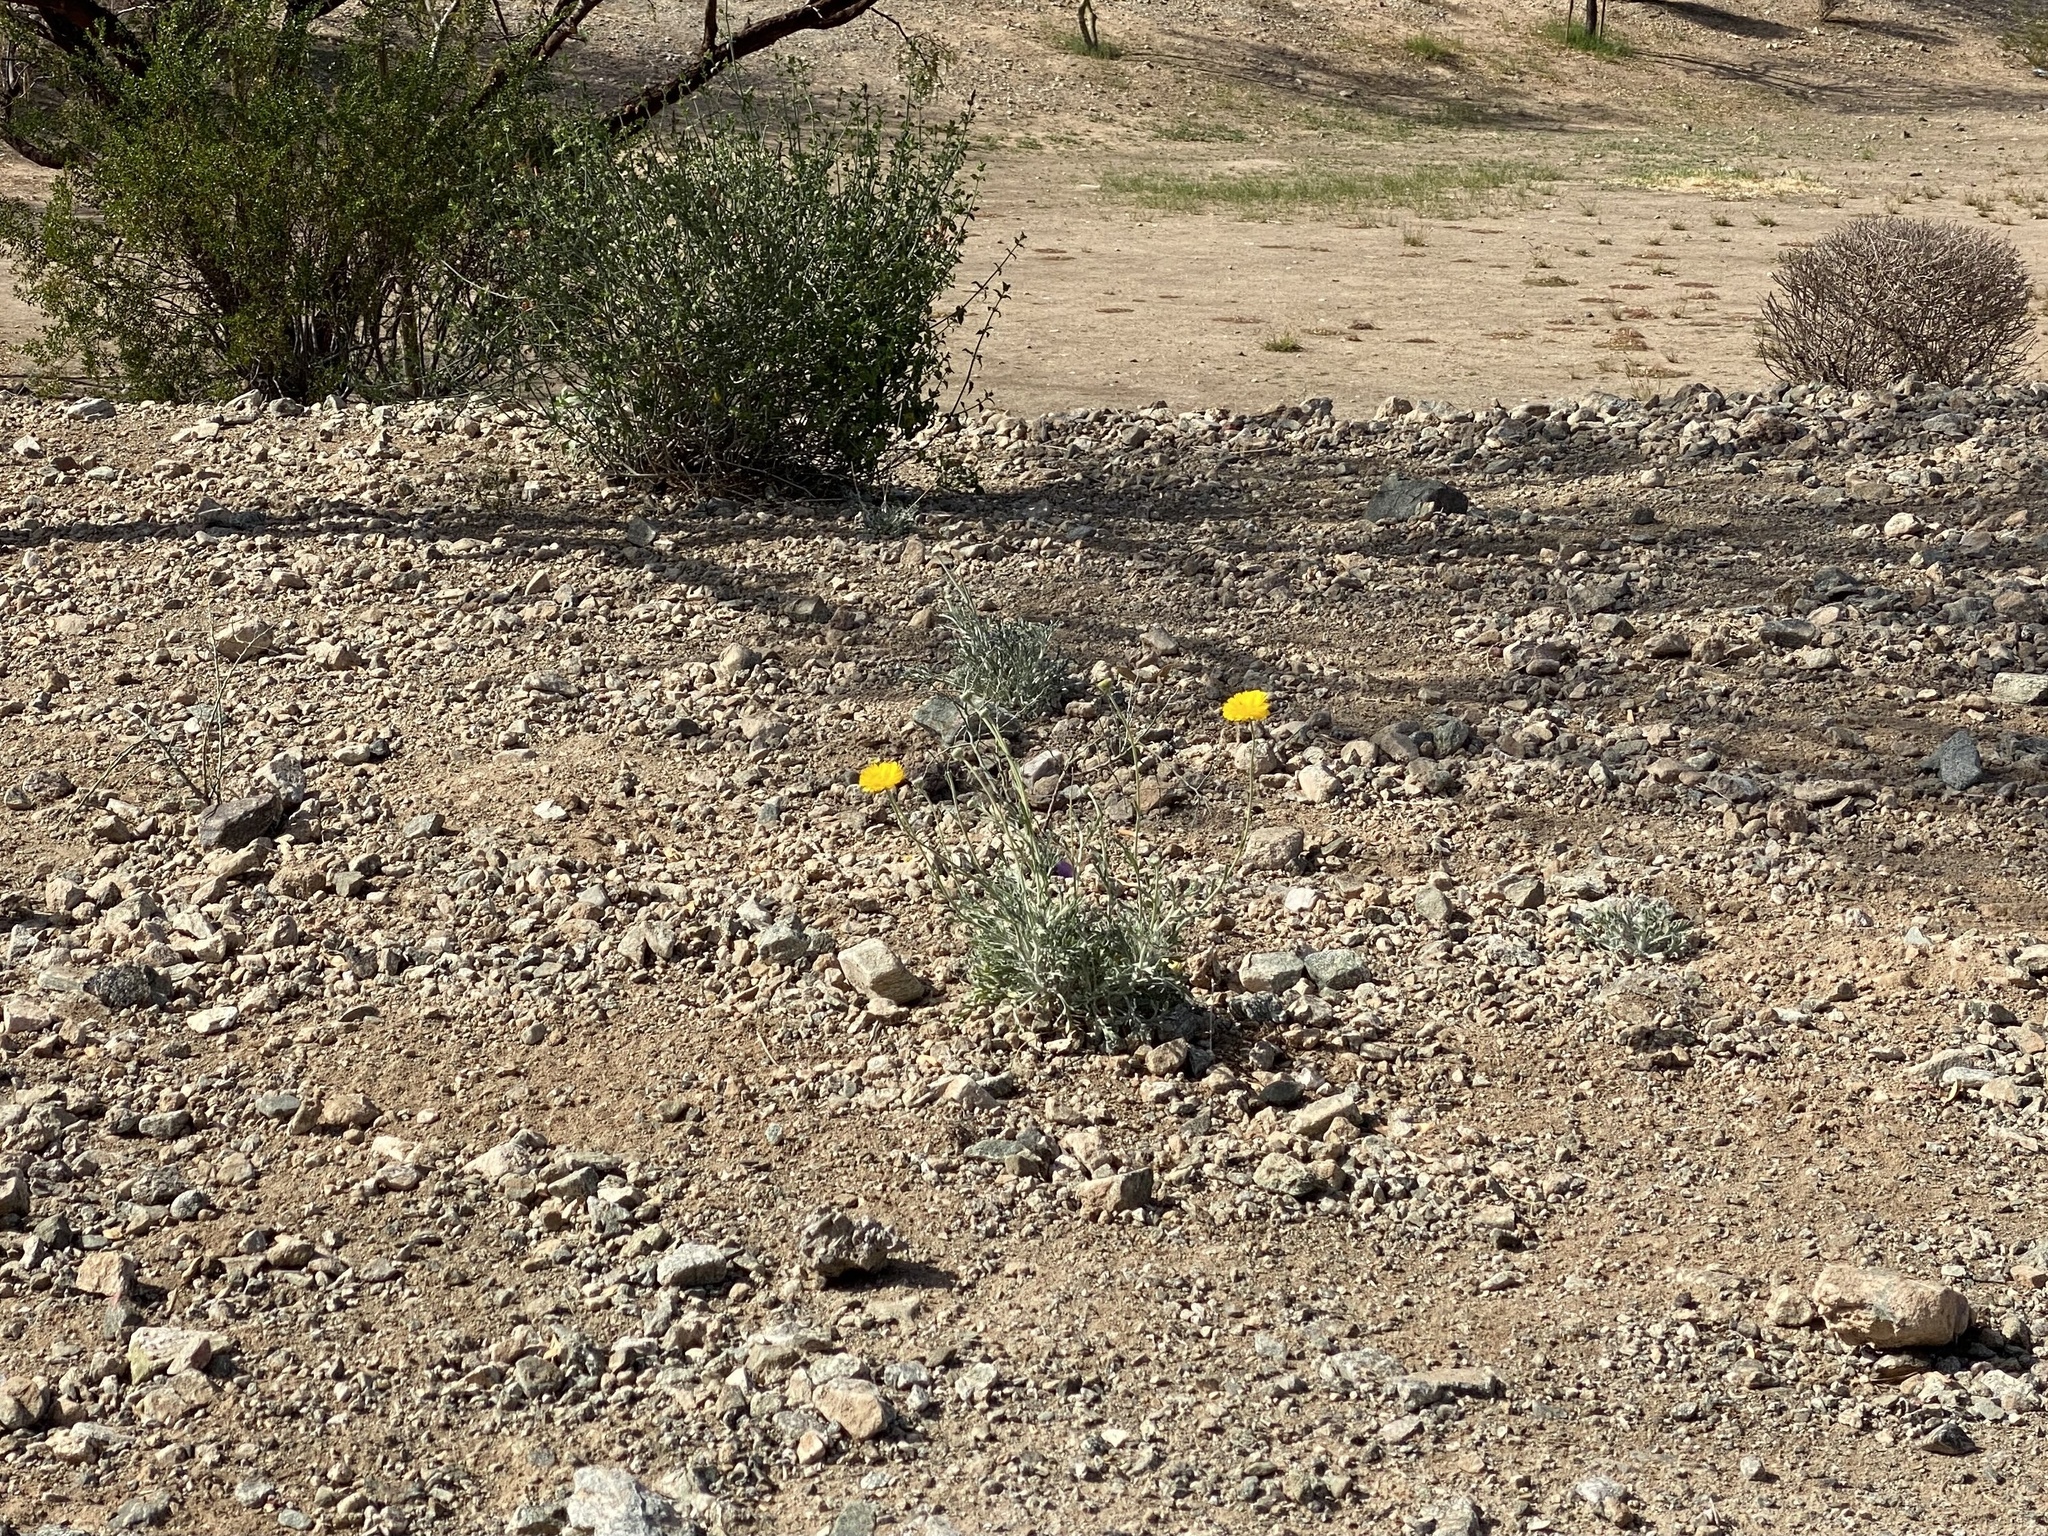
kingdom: Plantae
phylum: Tracheophyta
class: Magnoliopsida
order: Asterales
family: Asteraceae
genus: Baileya
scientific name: Baileya multiradiata
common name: Desert-marigold
